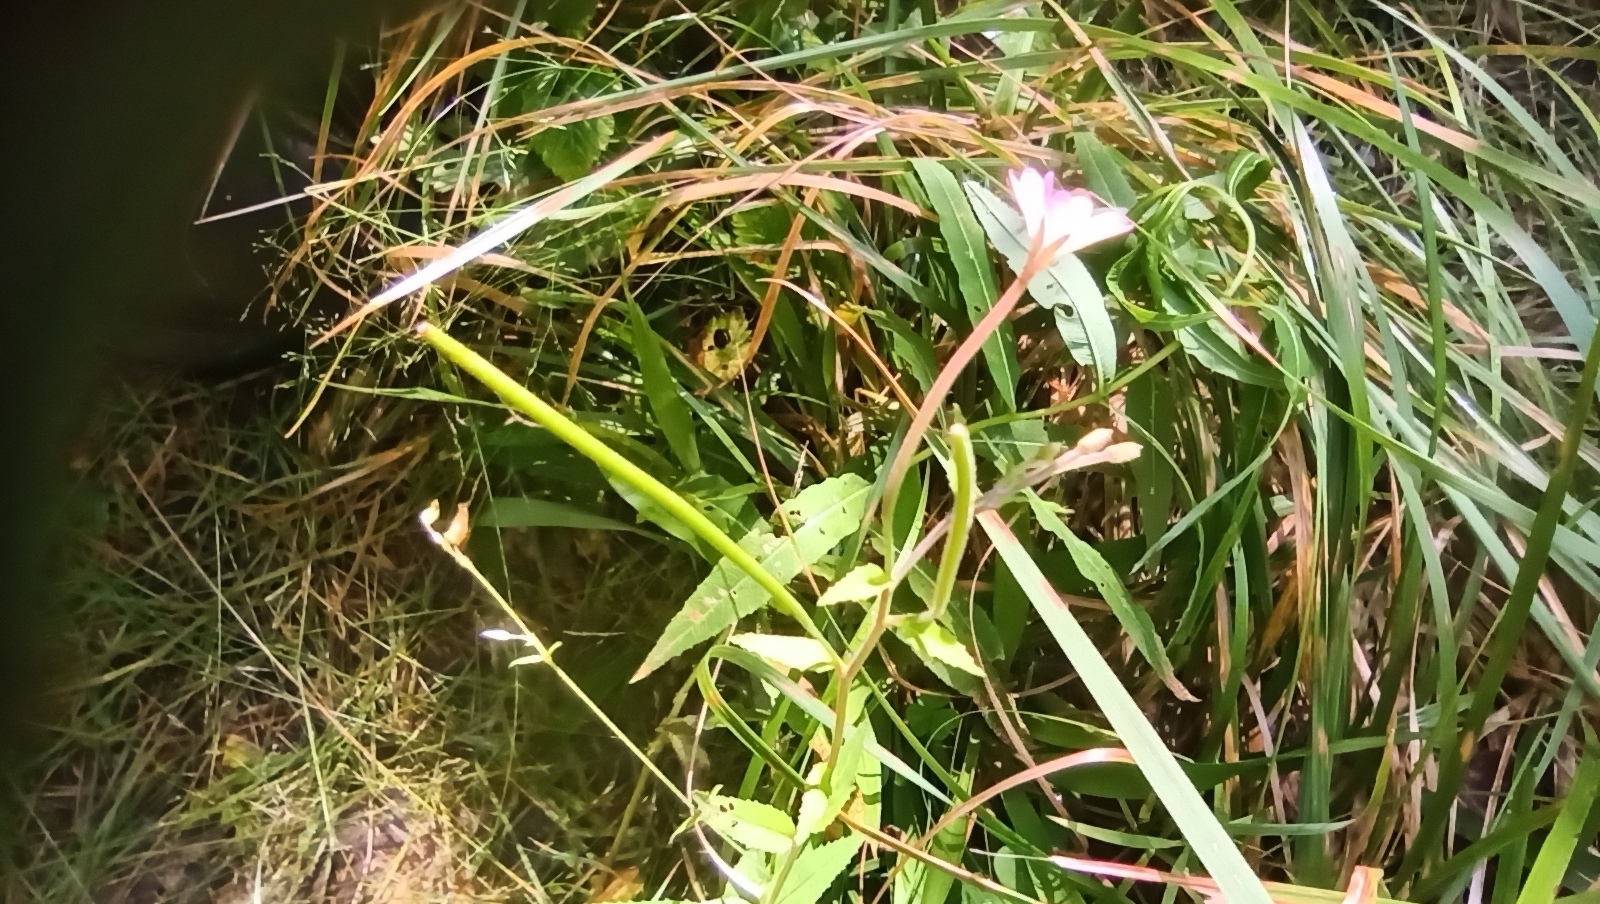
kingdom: Plantae
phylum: Tracheophyta
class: Magnoliopsida
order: Myrtales
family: Onagraceae
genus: Epilobium
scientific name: Epilobium montanum
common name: Broad-leaved willowherb
